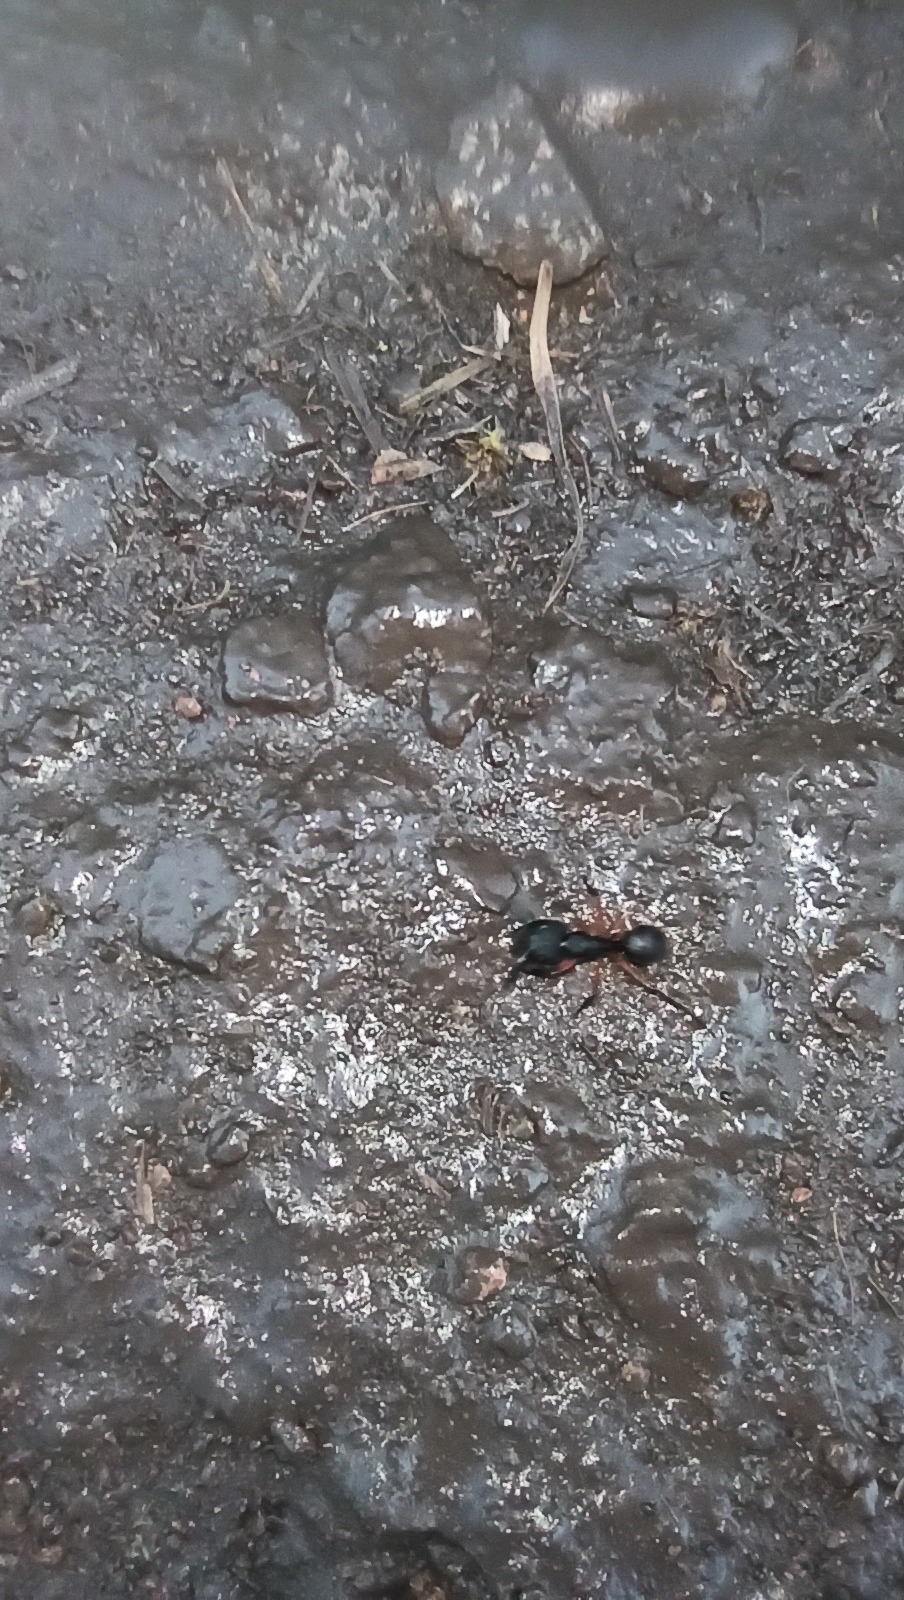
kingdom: Animalia
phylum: Arthropoda
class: Insecta
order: Hymenoptera
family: Formicidae
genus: Camponotus
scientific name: Camponotus renggeri
